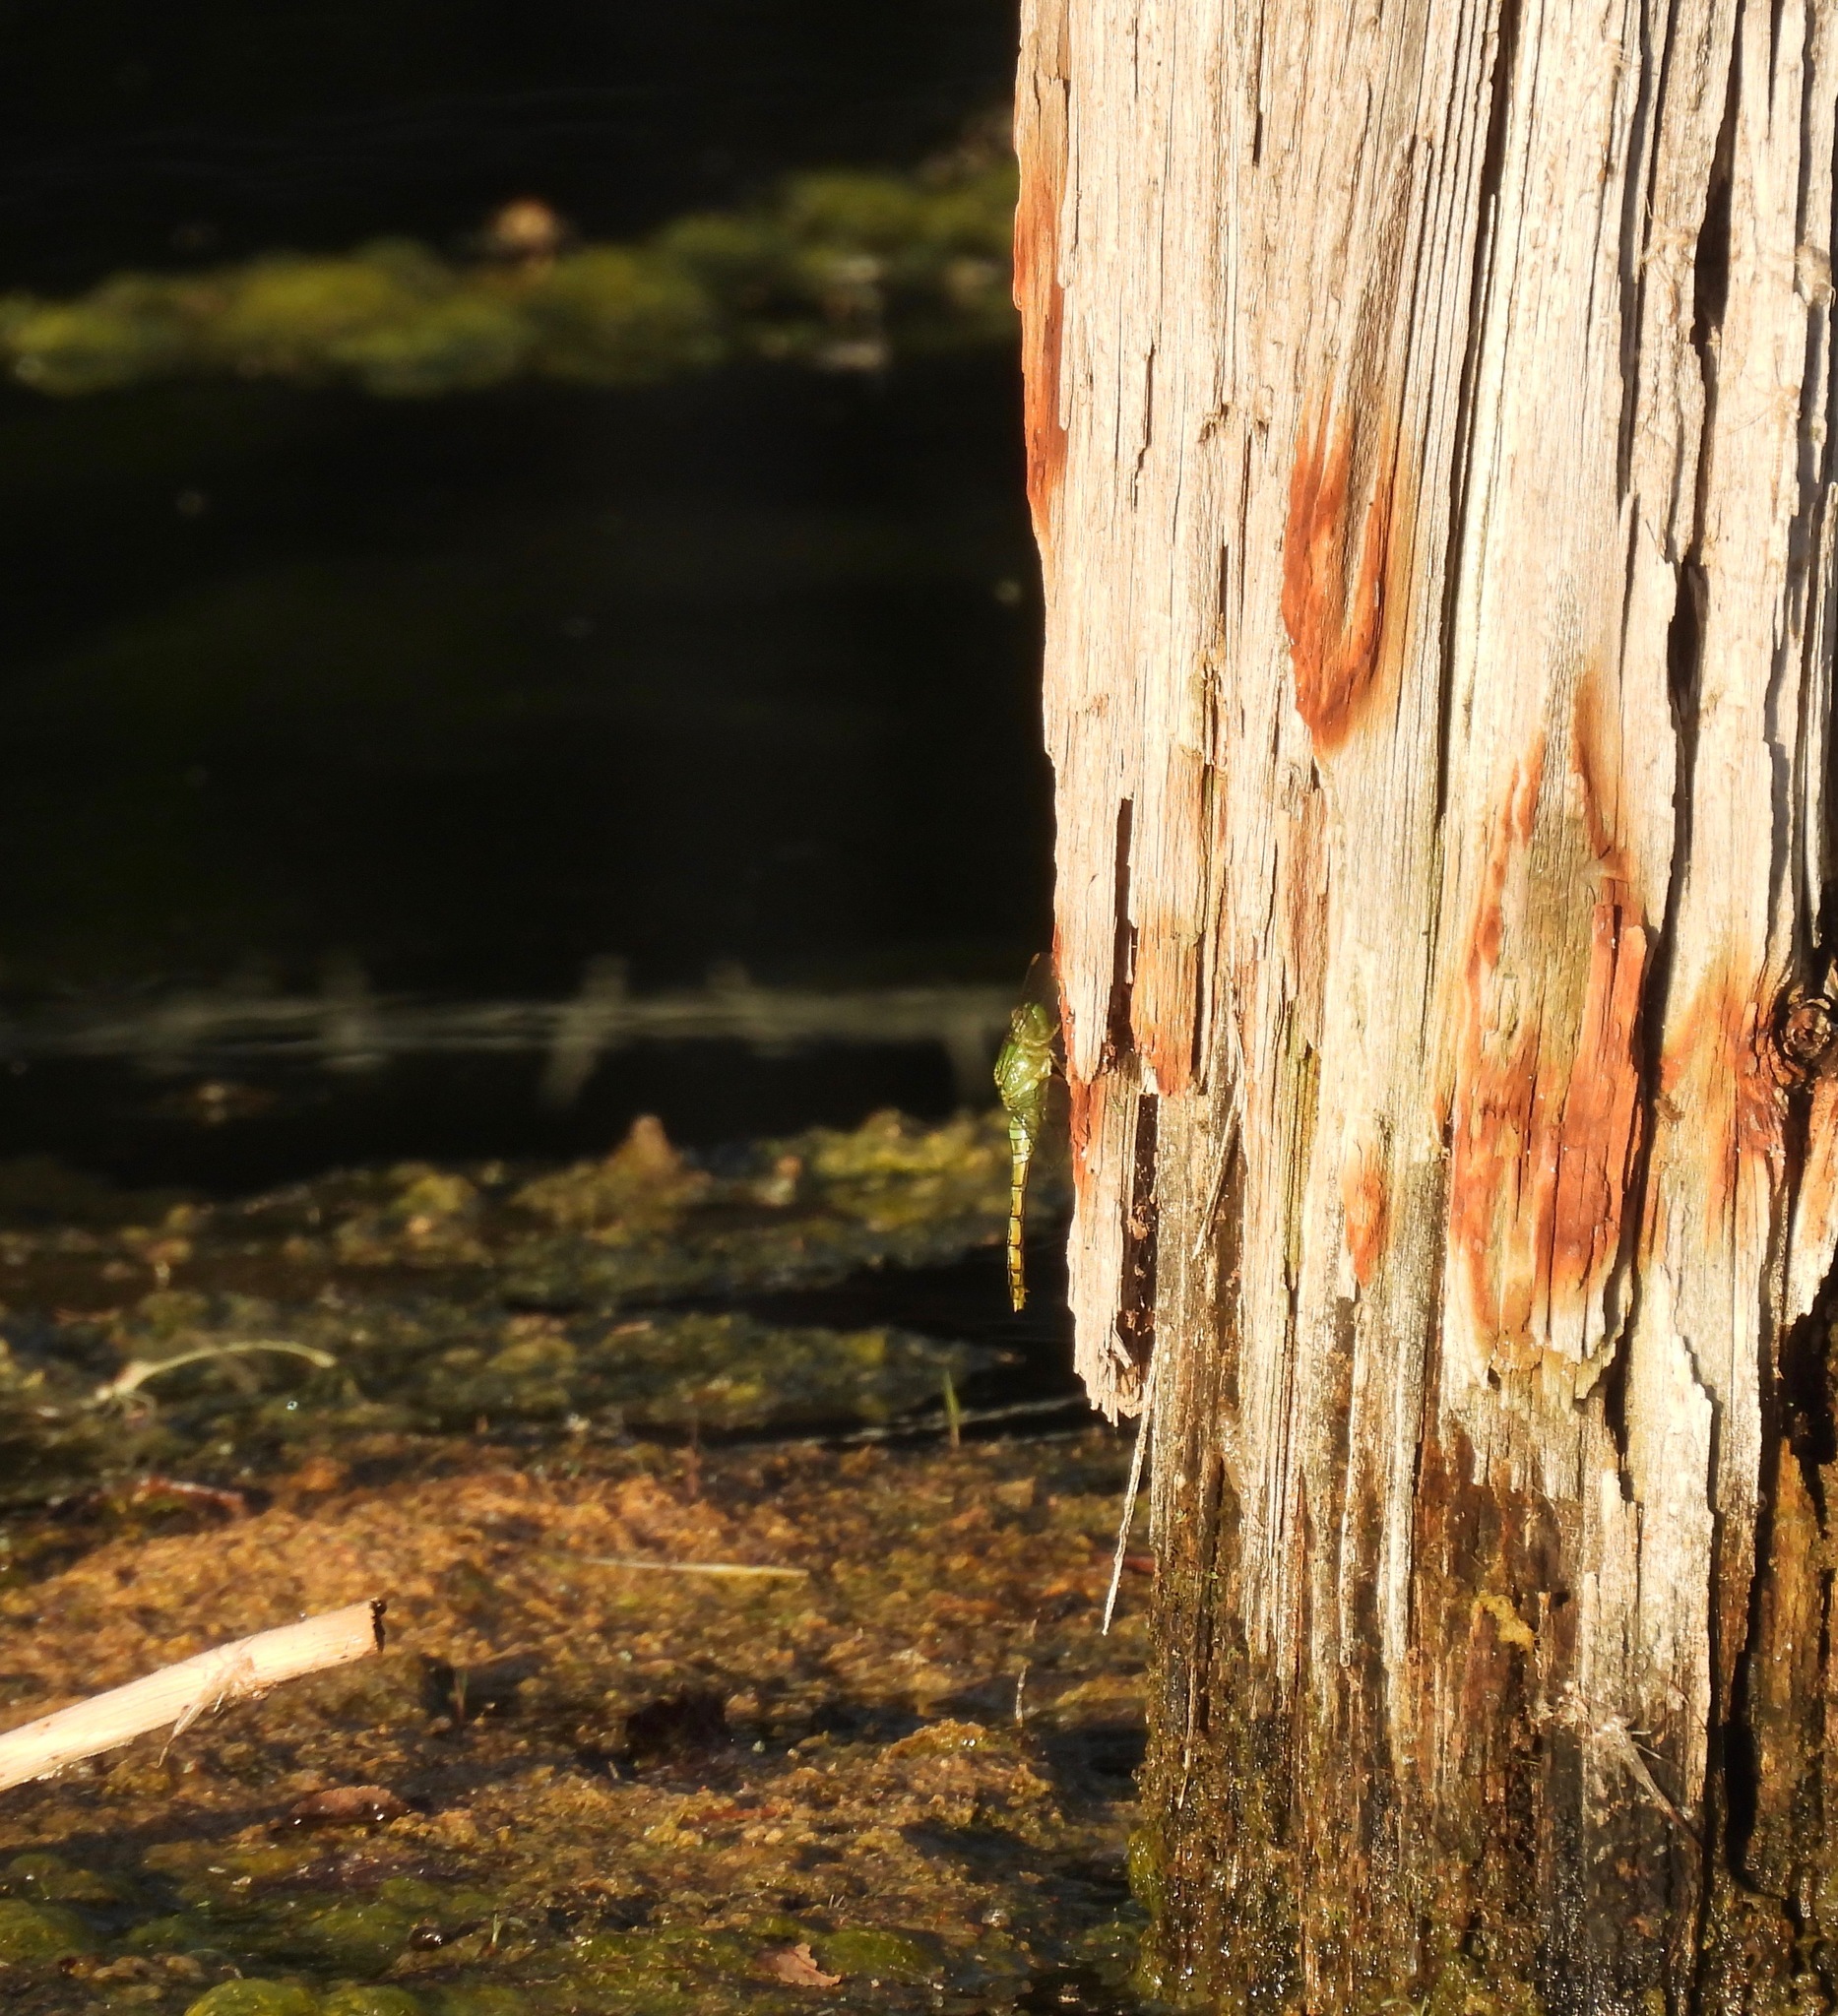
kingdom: Animalia
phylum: Arthropoda
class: Insecta
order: Odonata
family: Libellulidae
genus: Erythemis
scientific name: Erythemis collocata
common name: Western pondhawk
